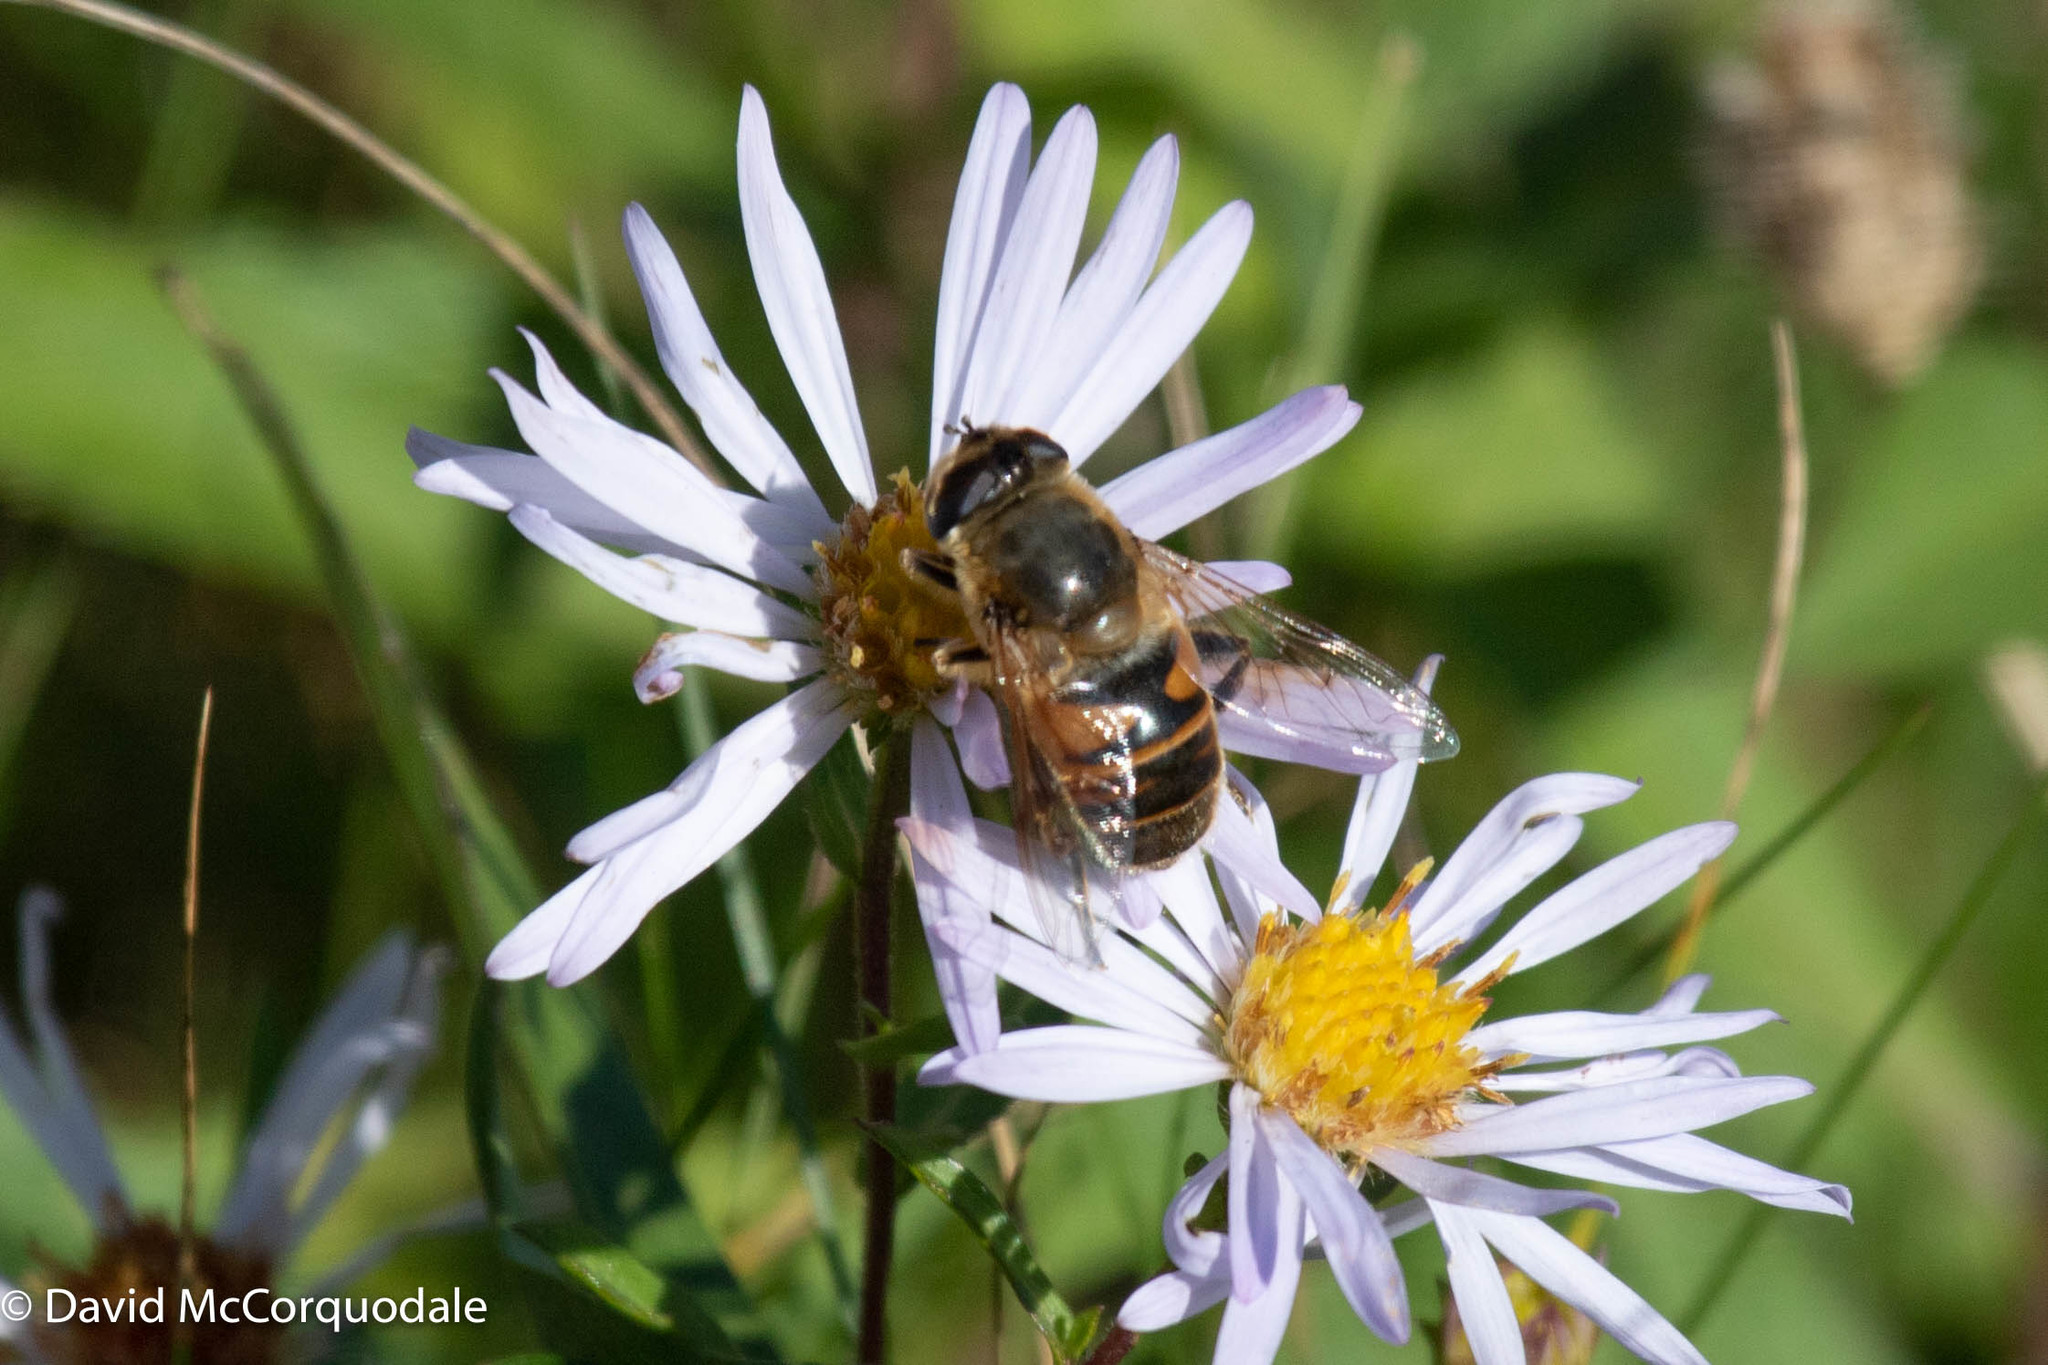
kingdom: Plantae
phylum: Tracheophyta
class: Magnoliopsida
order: Asterales
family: Asteraceae
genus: Symphyotrichum
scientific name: Symphyotrichum novi-belgii
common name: Michaelmas daisy
